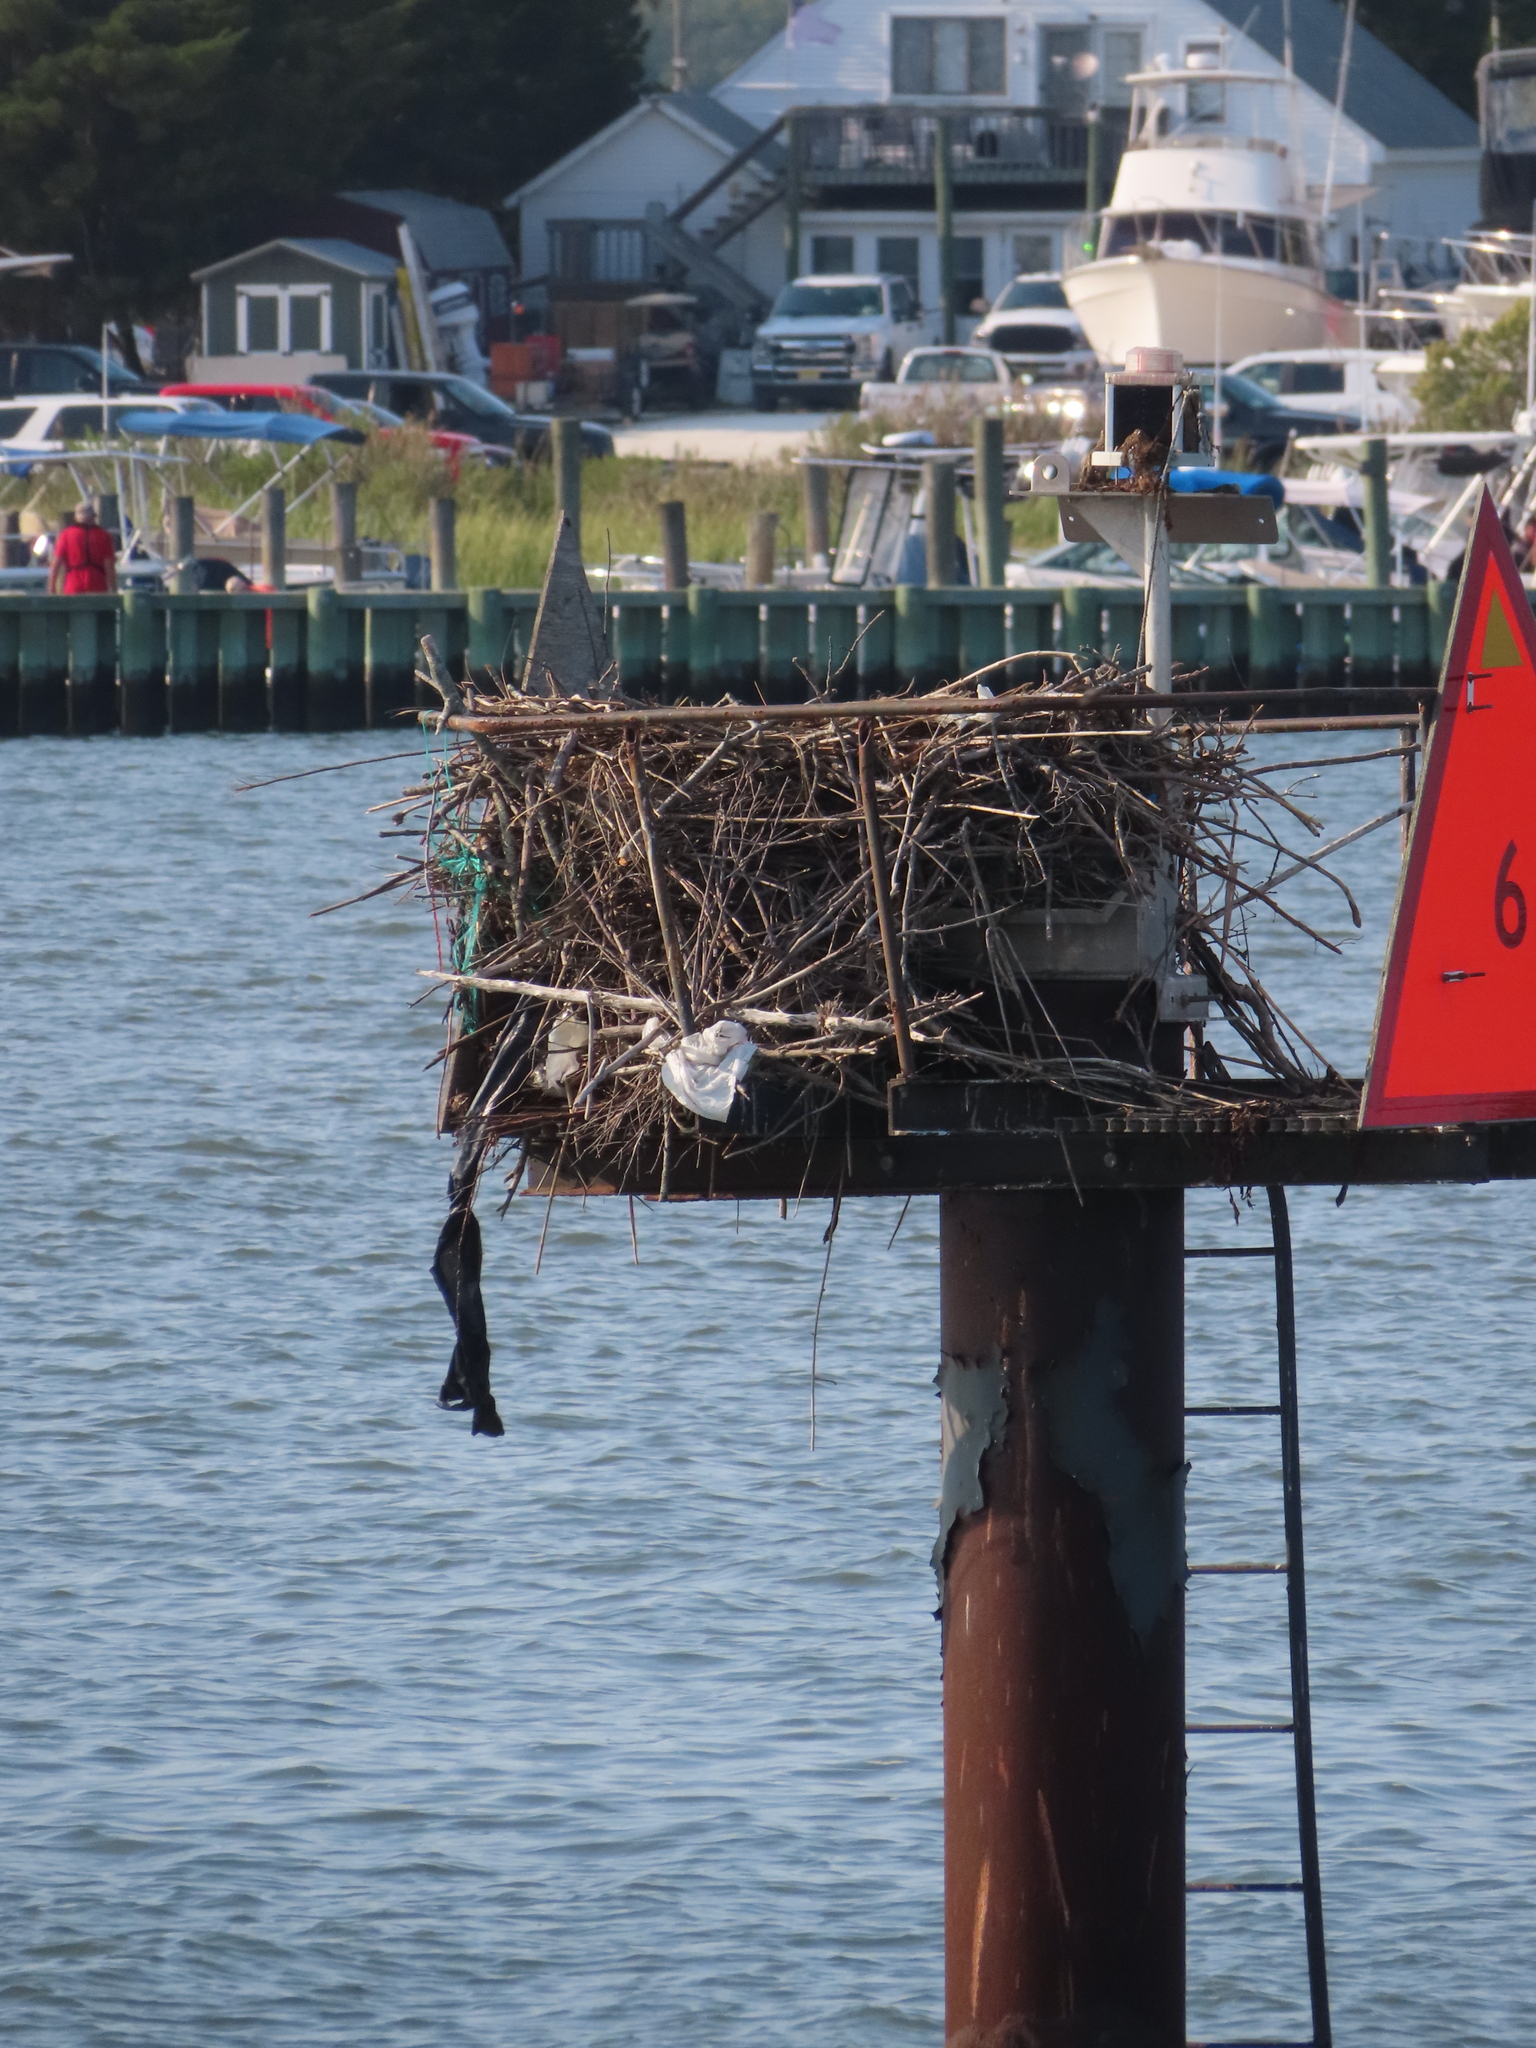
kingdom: Animalia
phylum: Chordata
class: Aves
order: Accipitriformes
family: Pandionidae
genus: Pandion
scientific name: Pandion haliaetus
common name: Osprey
